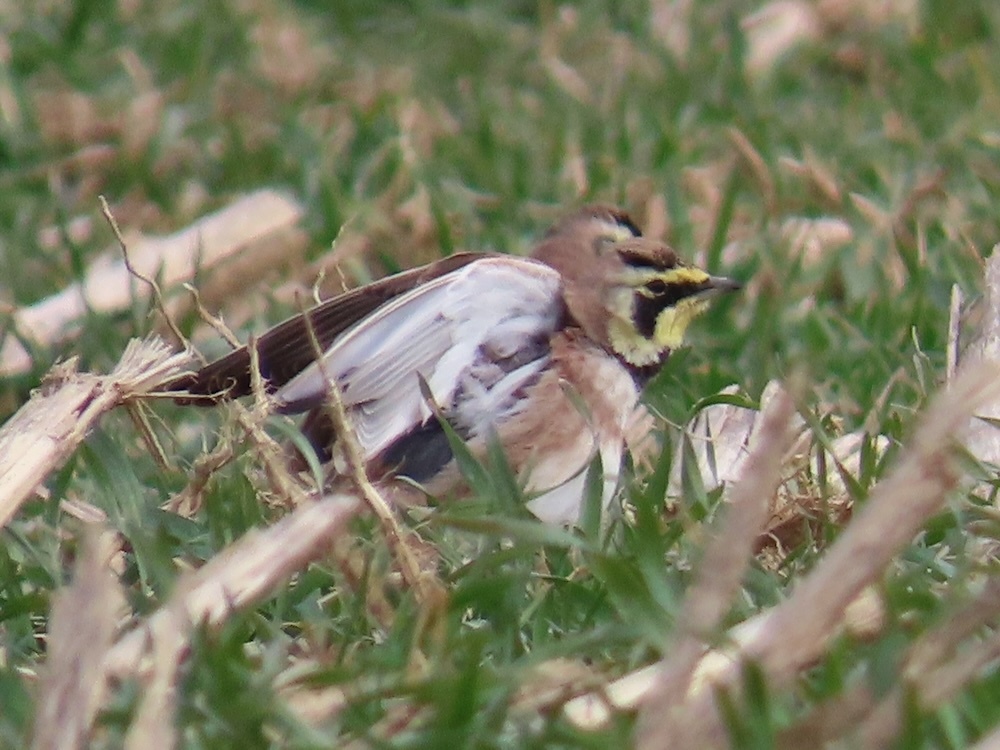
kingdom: Animalia
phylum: Chordata
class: Aves
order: Passeriformes
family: Alaudidae
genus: Eremophila
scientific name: Eremophila alpestris
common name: Horned lark
